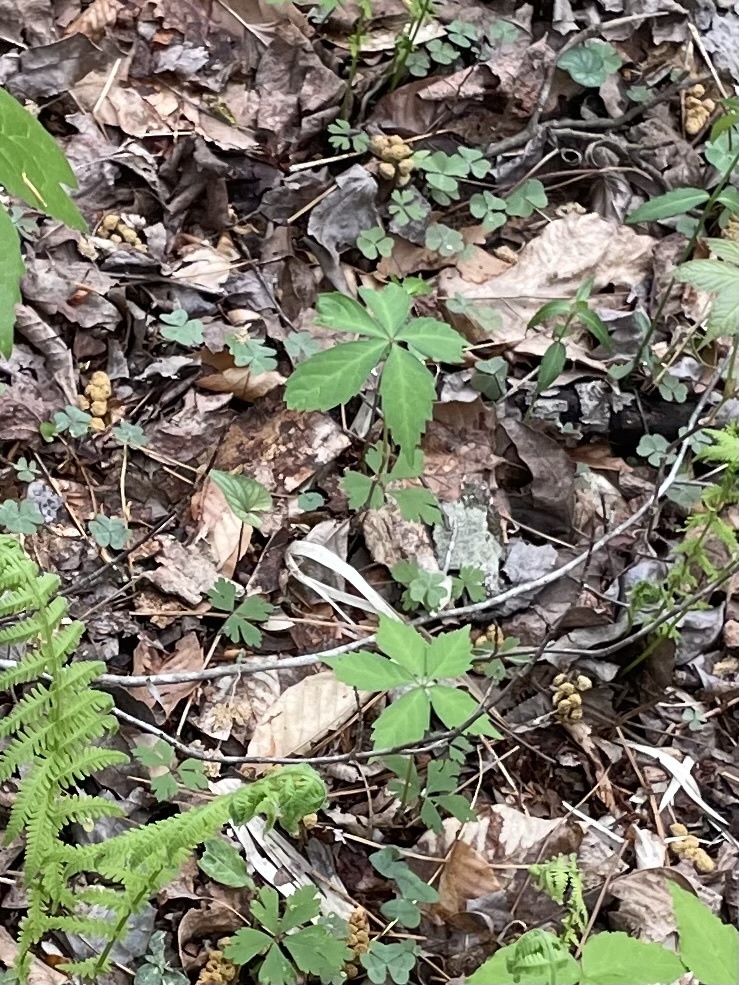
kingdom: Plantae
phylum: Tracheophyta
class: Magnoliopsida
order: Vitales
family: Vitaceae
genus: Parthenocissus
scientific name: Parthenocissus quinquefolia
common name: Virginia-creeper
